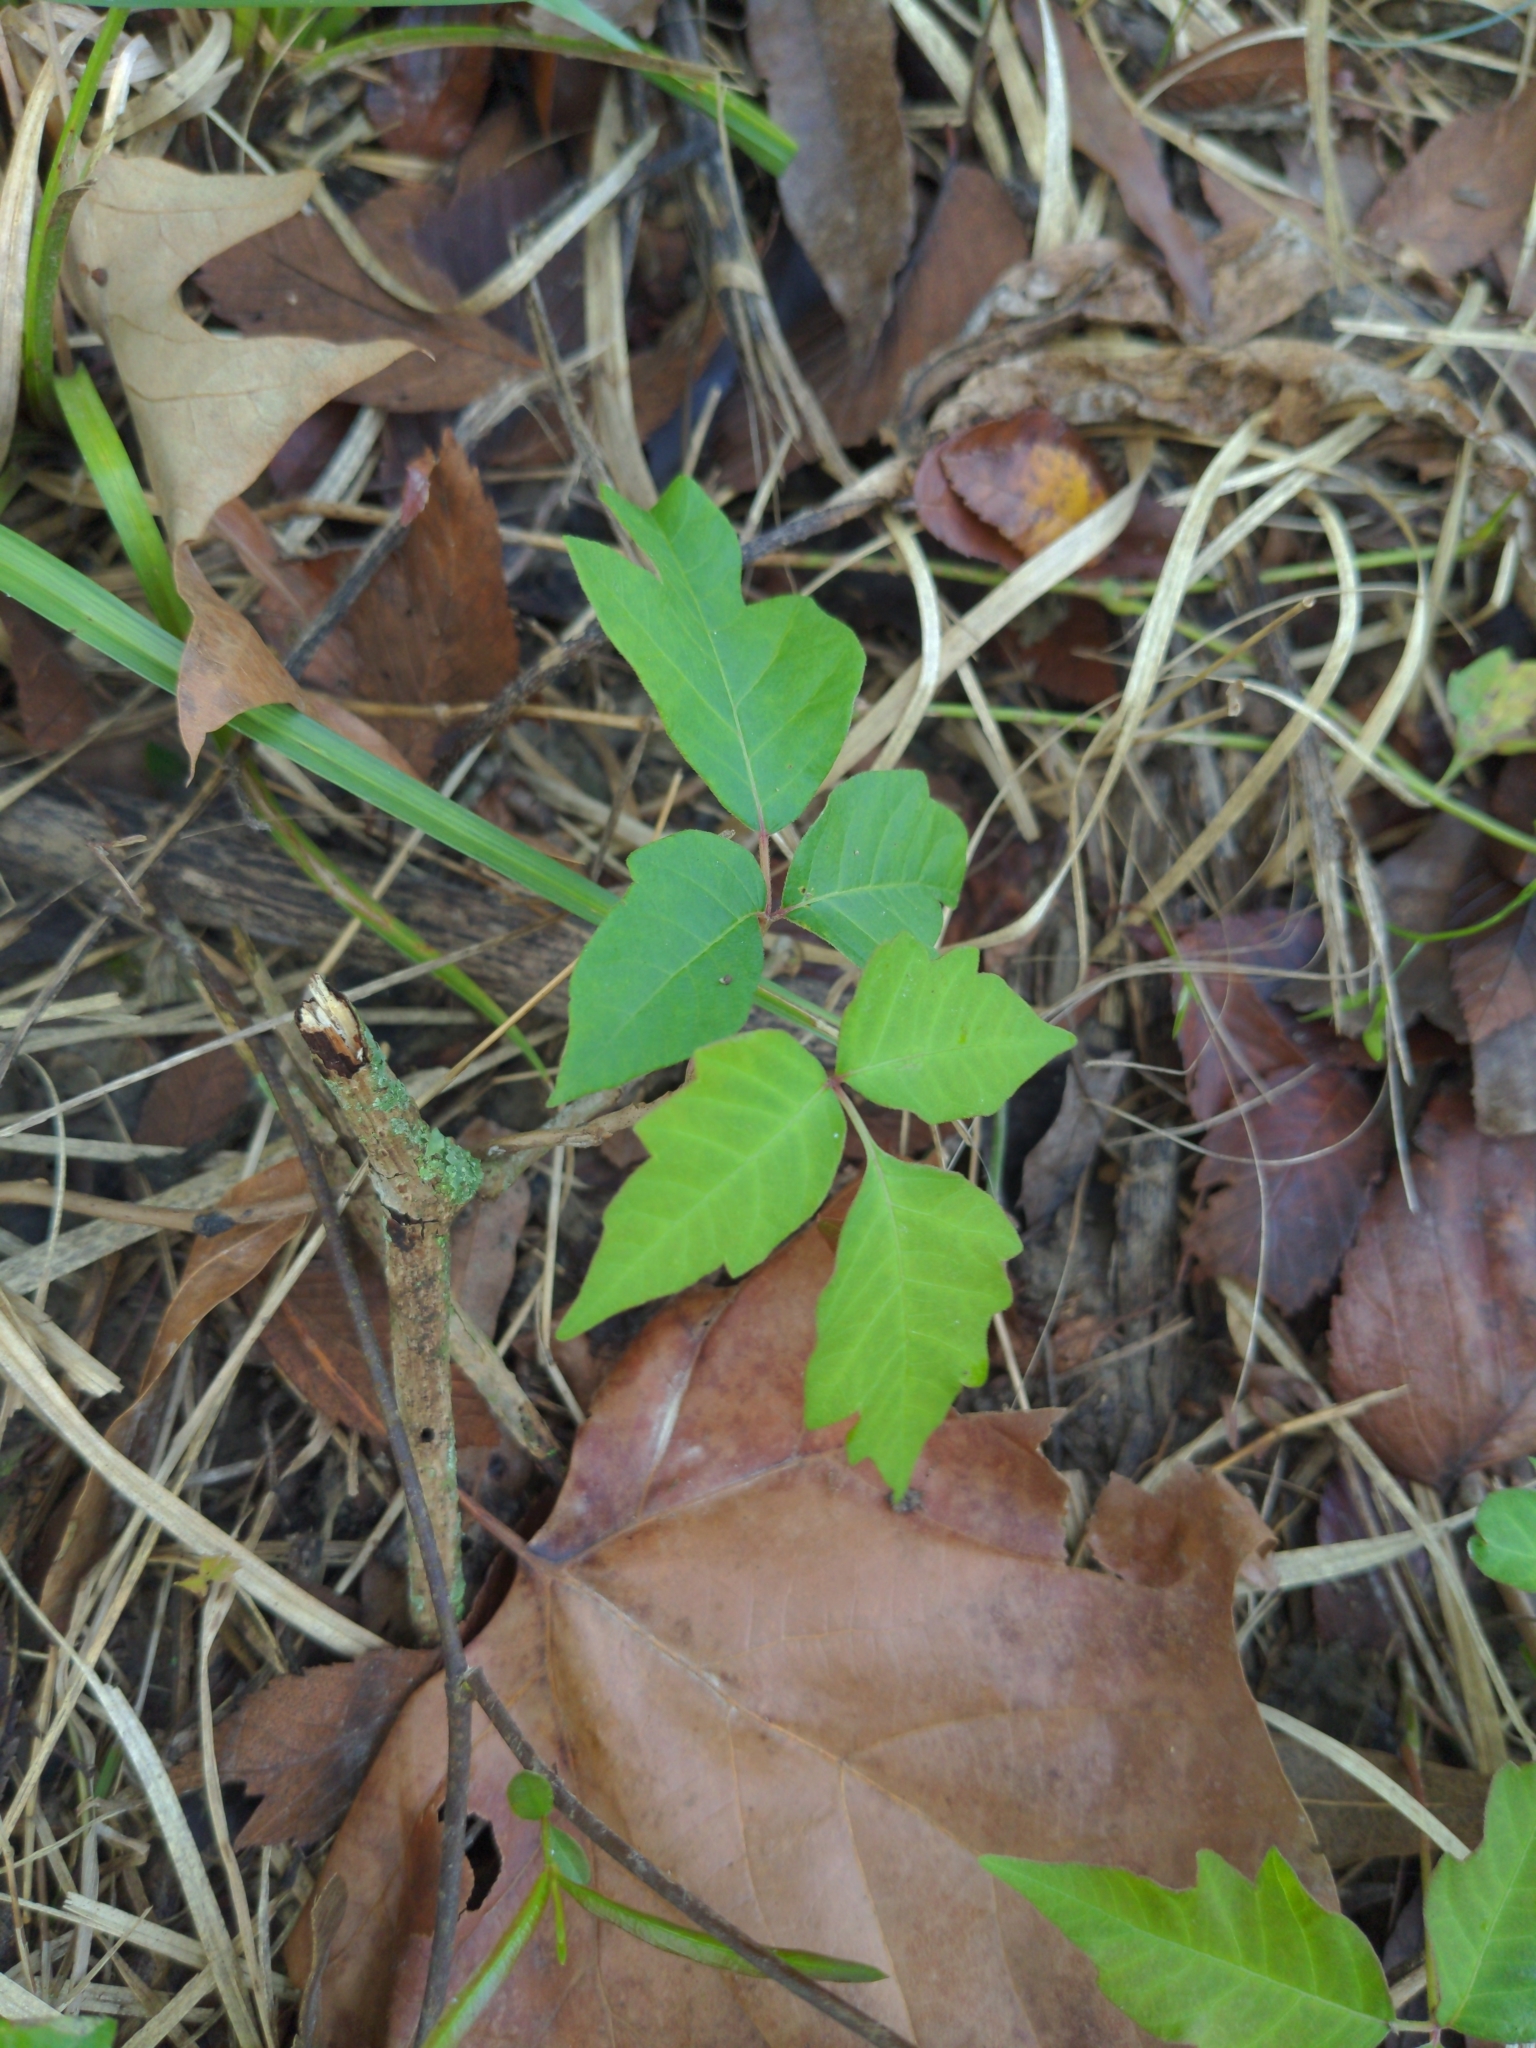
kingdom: Plantae
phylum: Tracheophyta
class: Magnoliopsida
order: Sapindales
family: Anacardiaceae
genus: Toxicodendron
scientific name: Toxicodendron radicans
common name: Poison ivy
